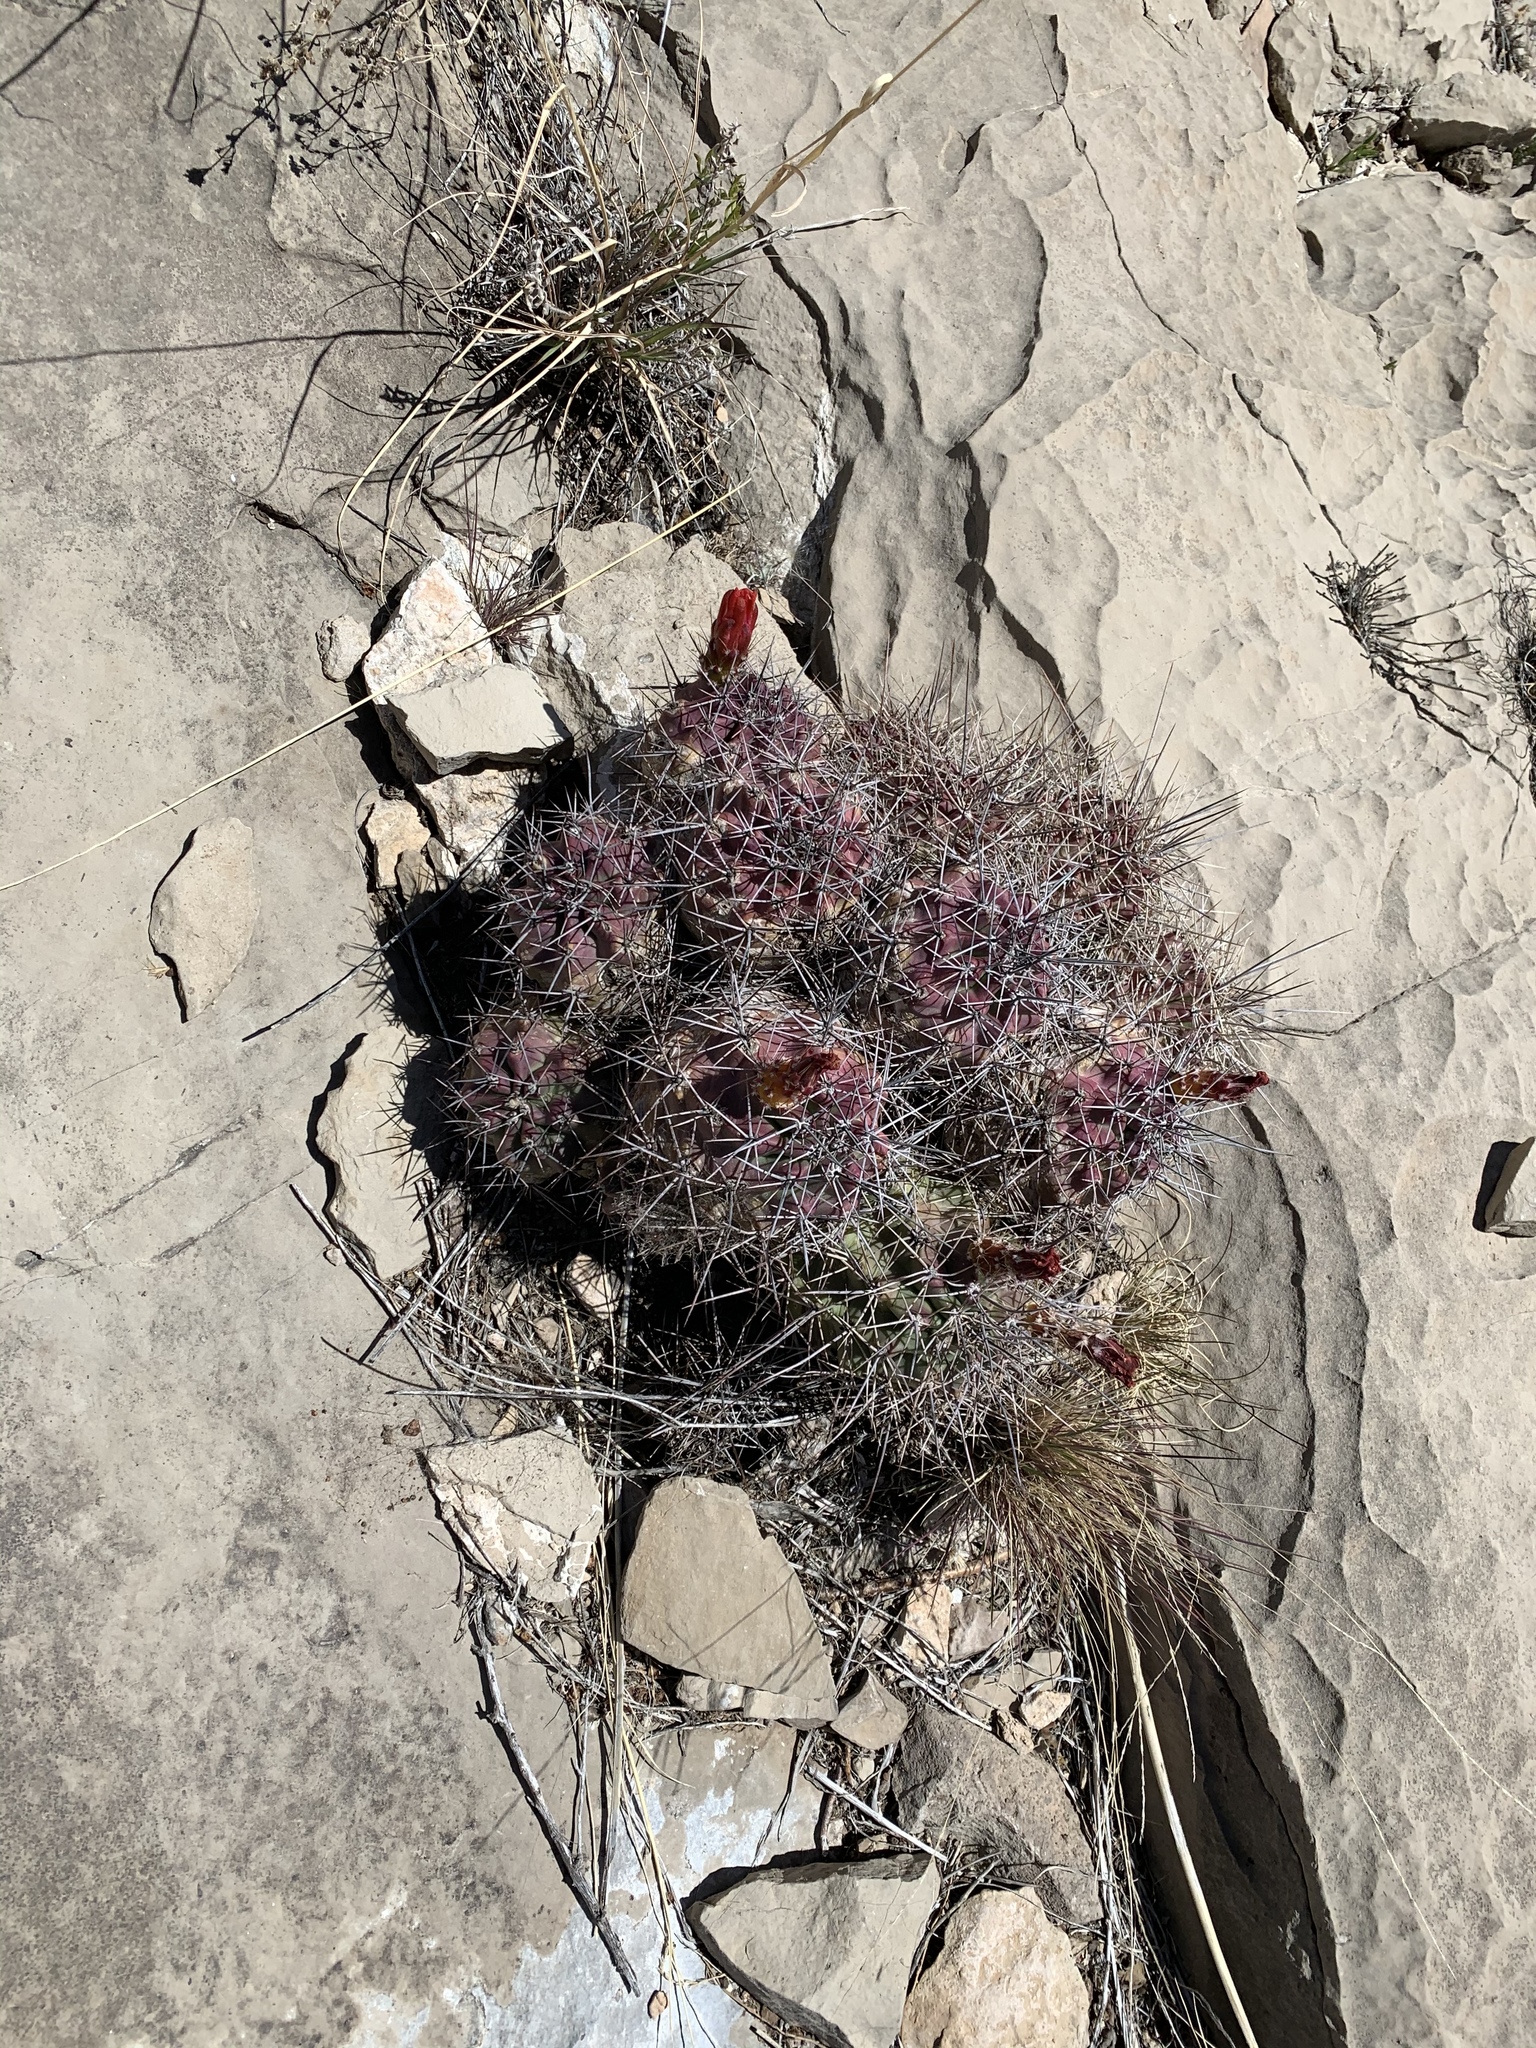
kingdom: Plantae
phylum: Tracheophyta
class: Magnoliopsida
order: Caryophyllales
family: Cactaceae
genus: Echinocereus
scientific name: Echinocereus coccineus
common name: Scarlet hedgehog cactus
